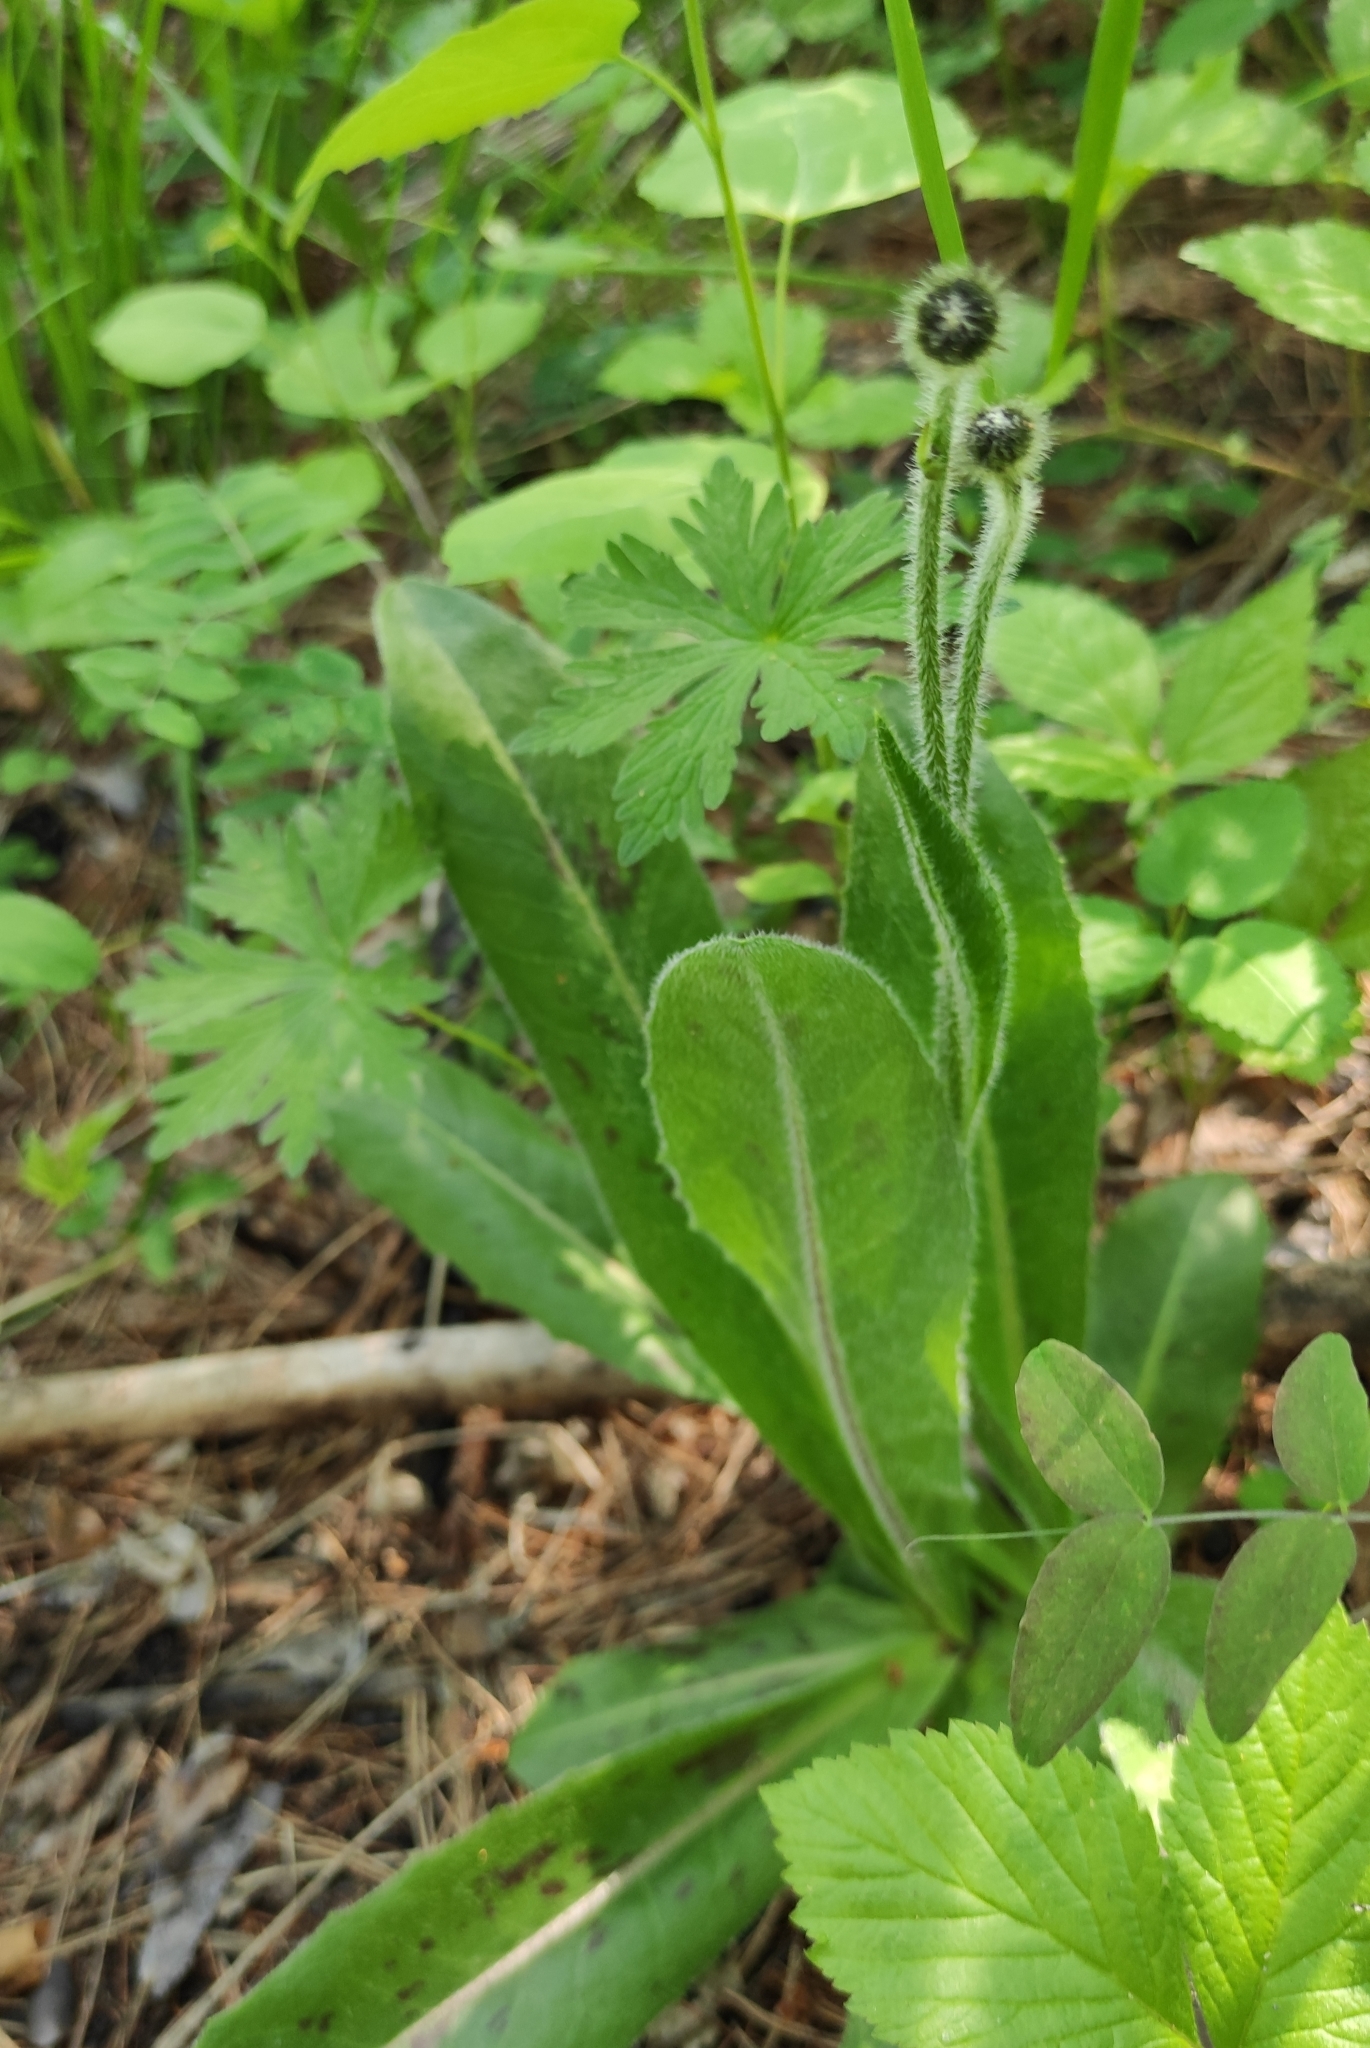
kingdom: Plantae
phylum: Tracheophyta
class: Magnoliopsida
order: Asterales
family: Asteraceae
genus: Trommsdorffia
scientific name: Trommsdorffia maculata
